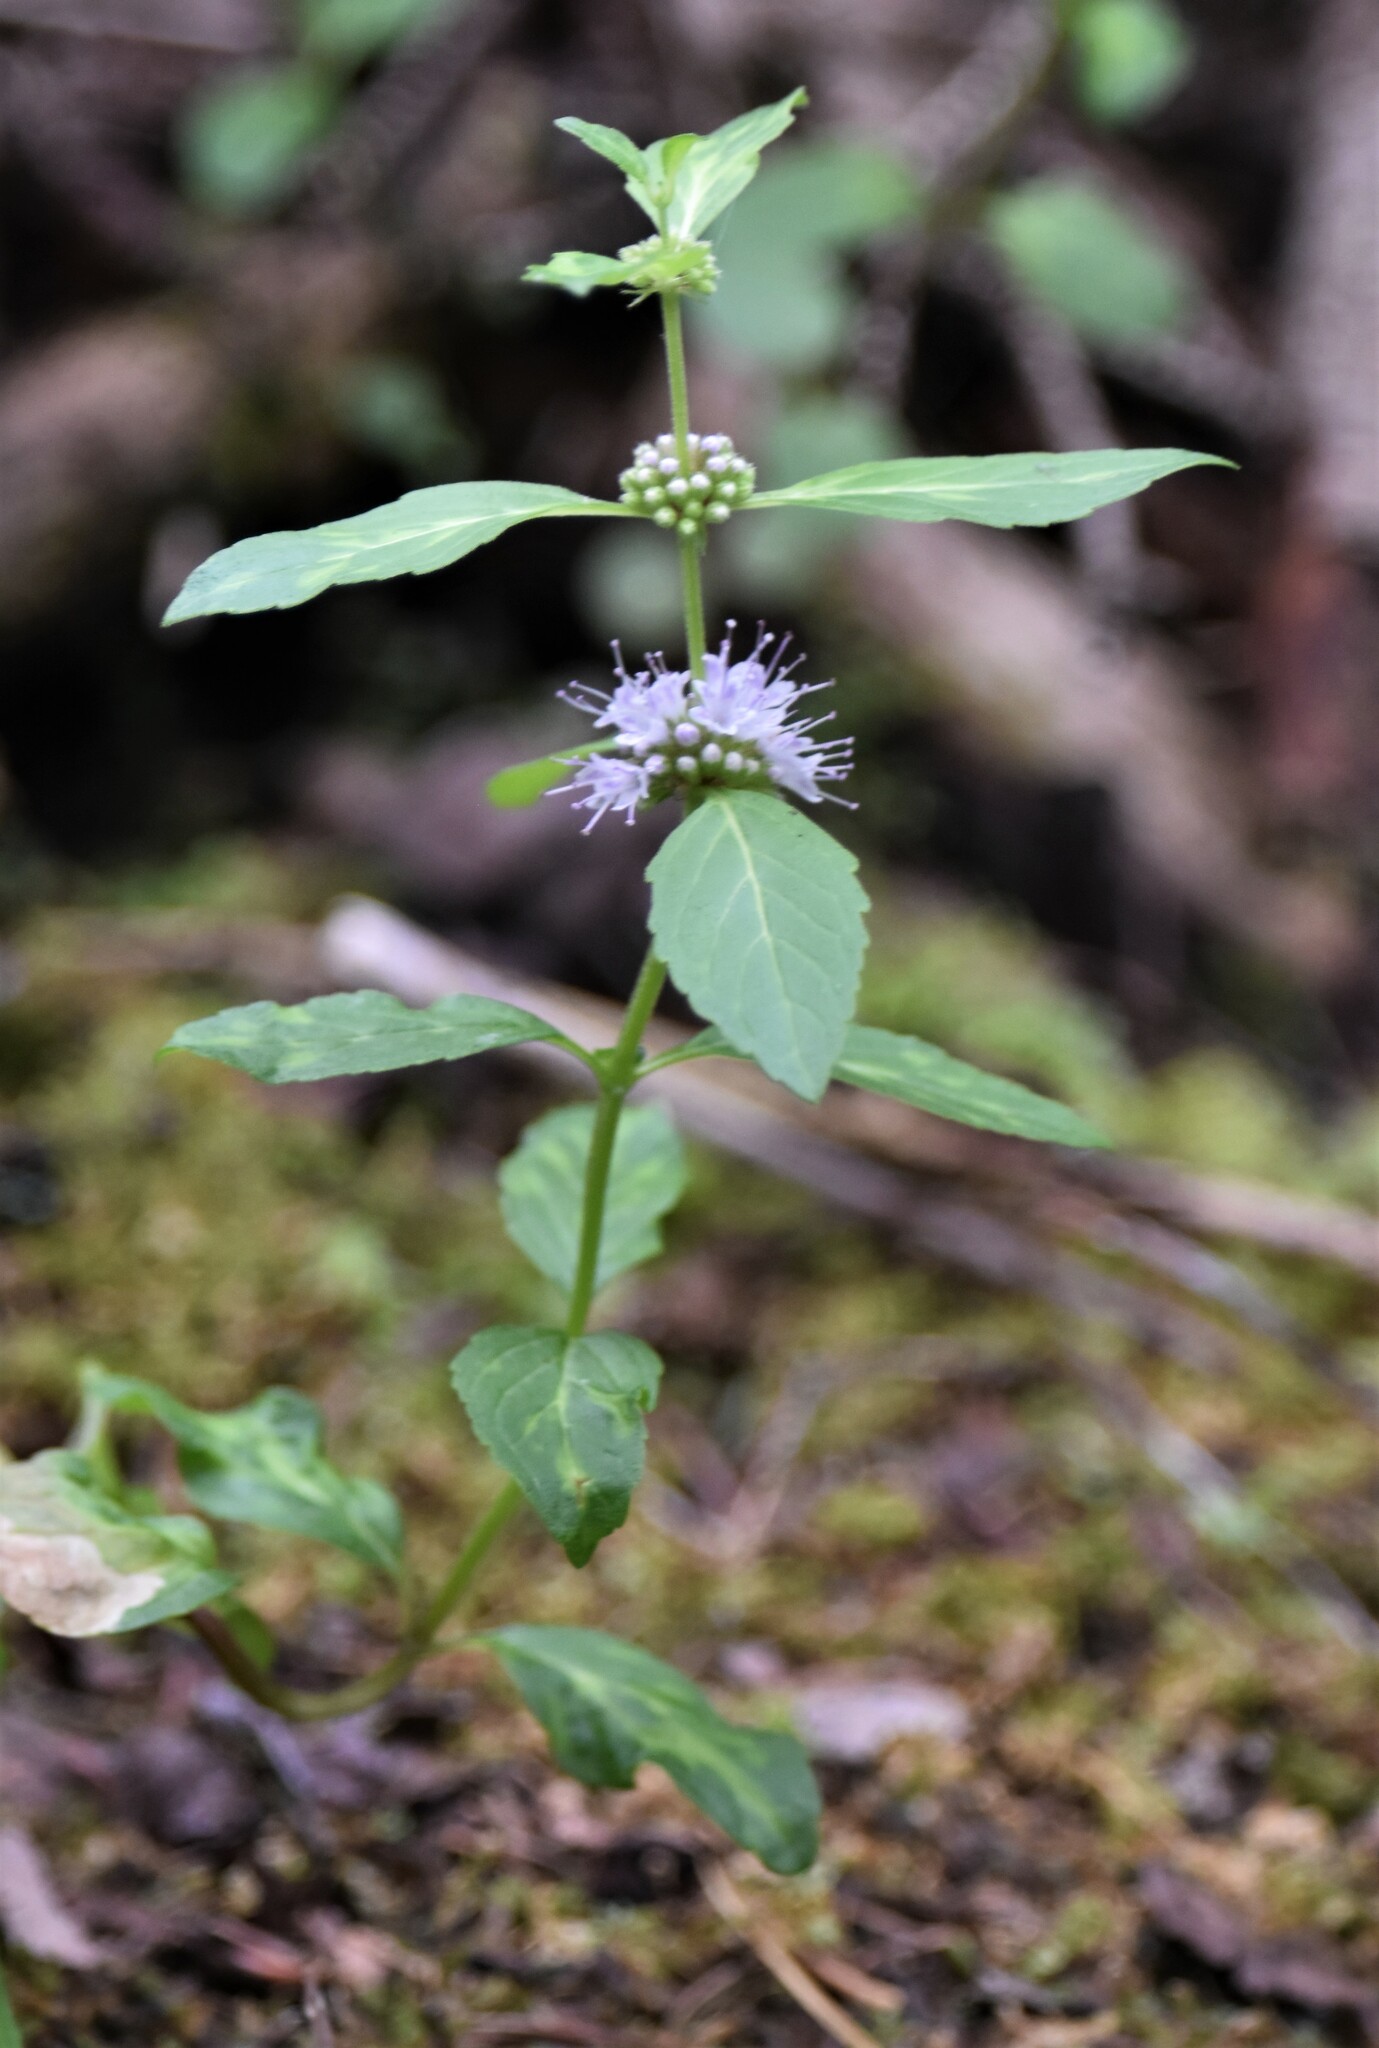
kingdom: Plantae
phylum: Tracheophyta
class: Magnoliopsida
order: Lamiales
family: Lamiaceae
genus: Mentha
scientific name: Mentha canadensis
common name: American corn mint
